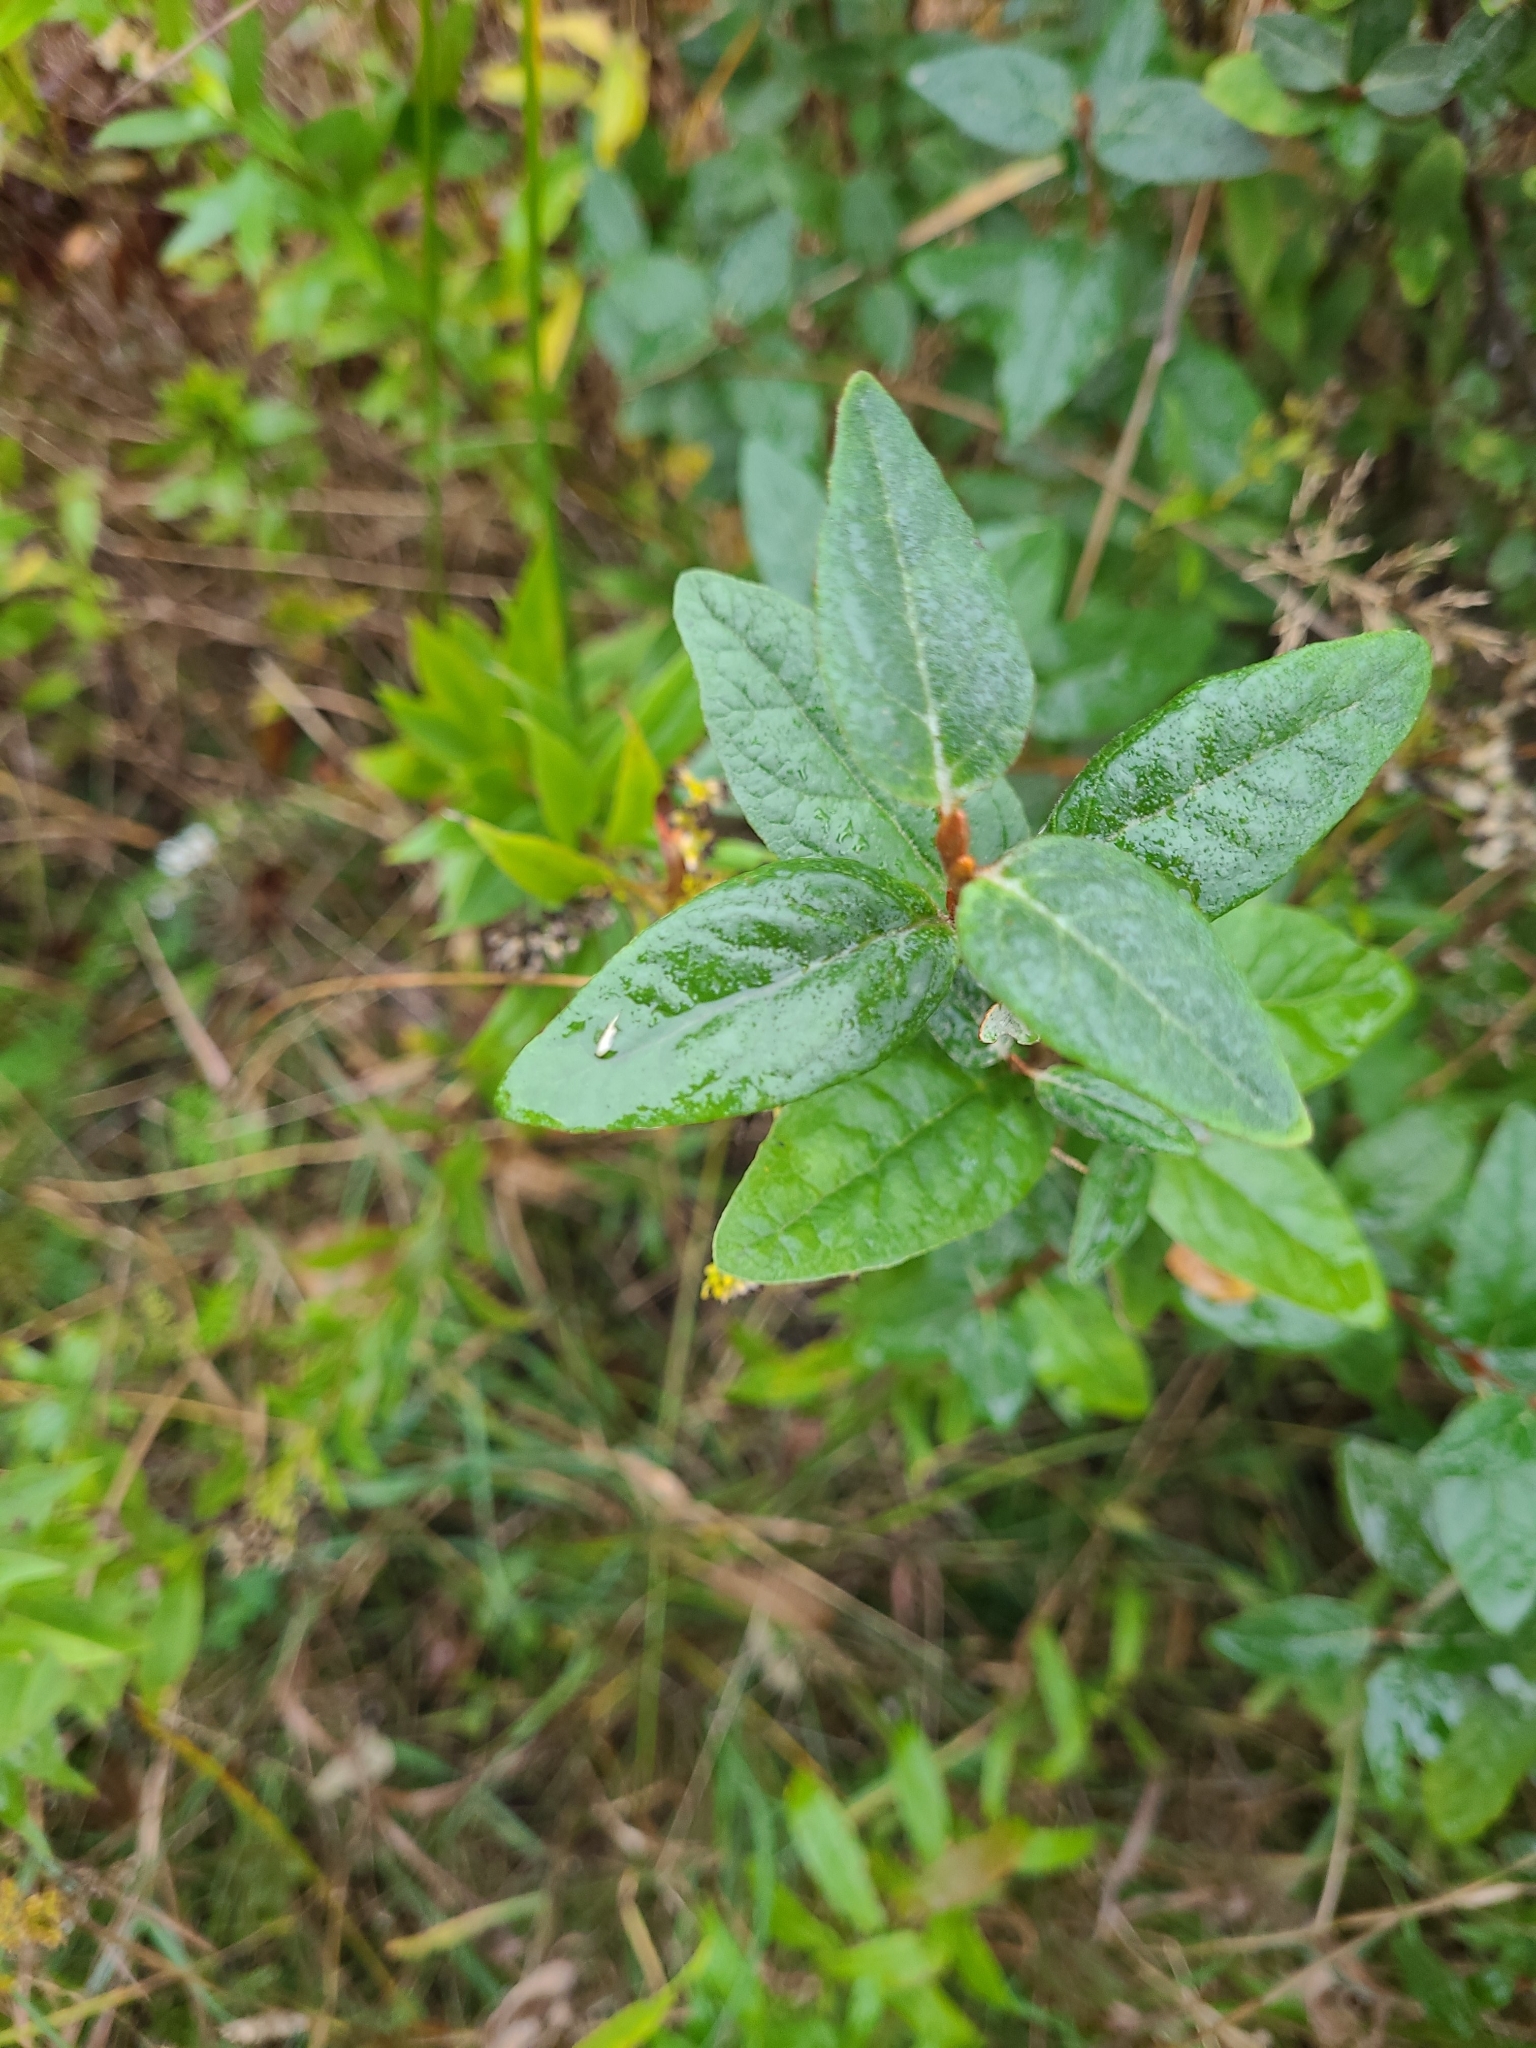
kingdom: Plantae
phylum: Tracheophyta
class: Magnoliopsida
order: Rosales
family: Elaeagnaceae
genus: Shepherdia
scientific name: Shepherdia canadensis
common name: Soapberry
